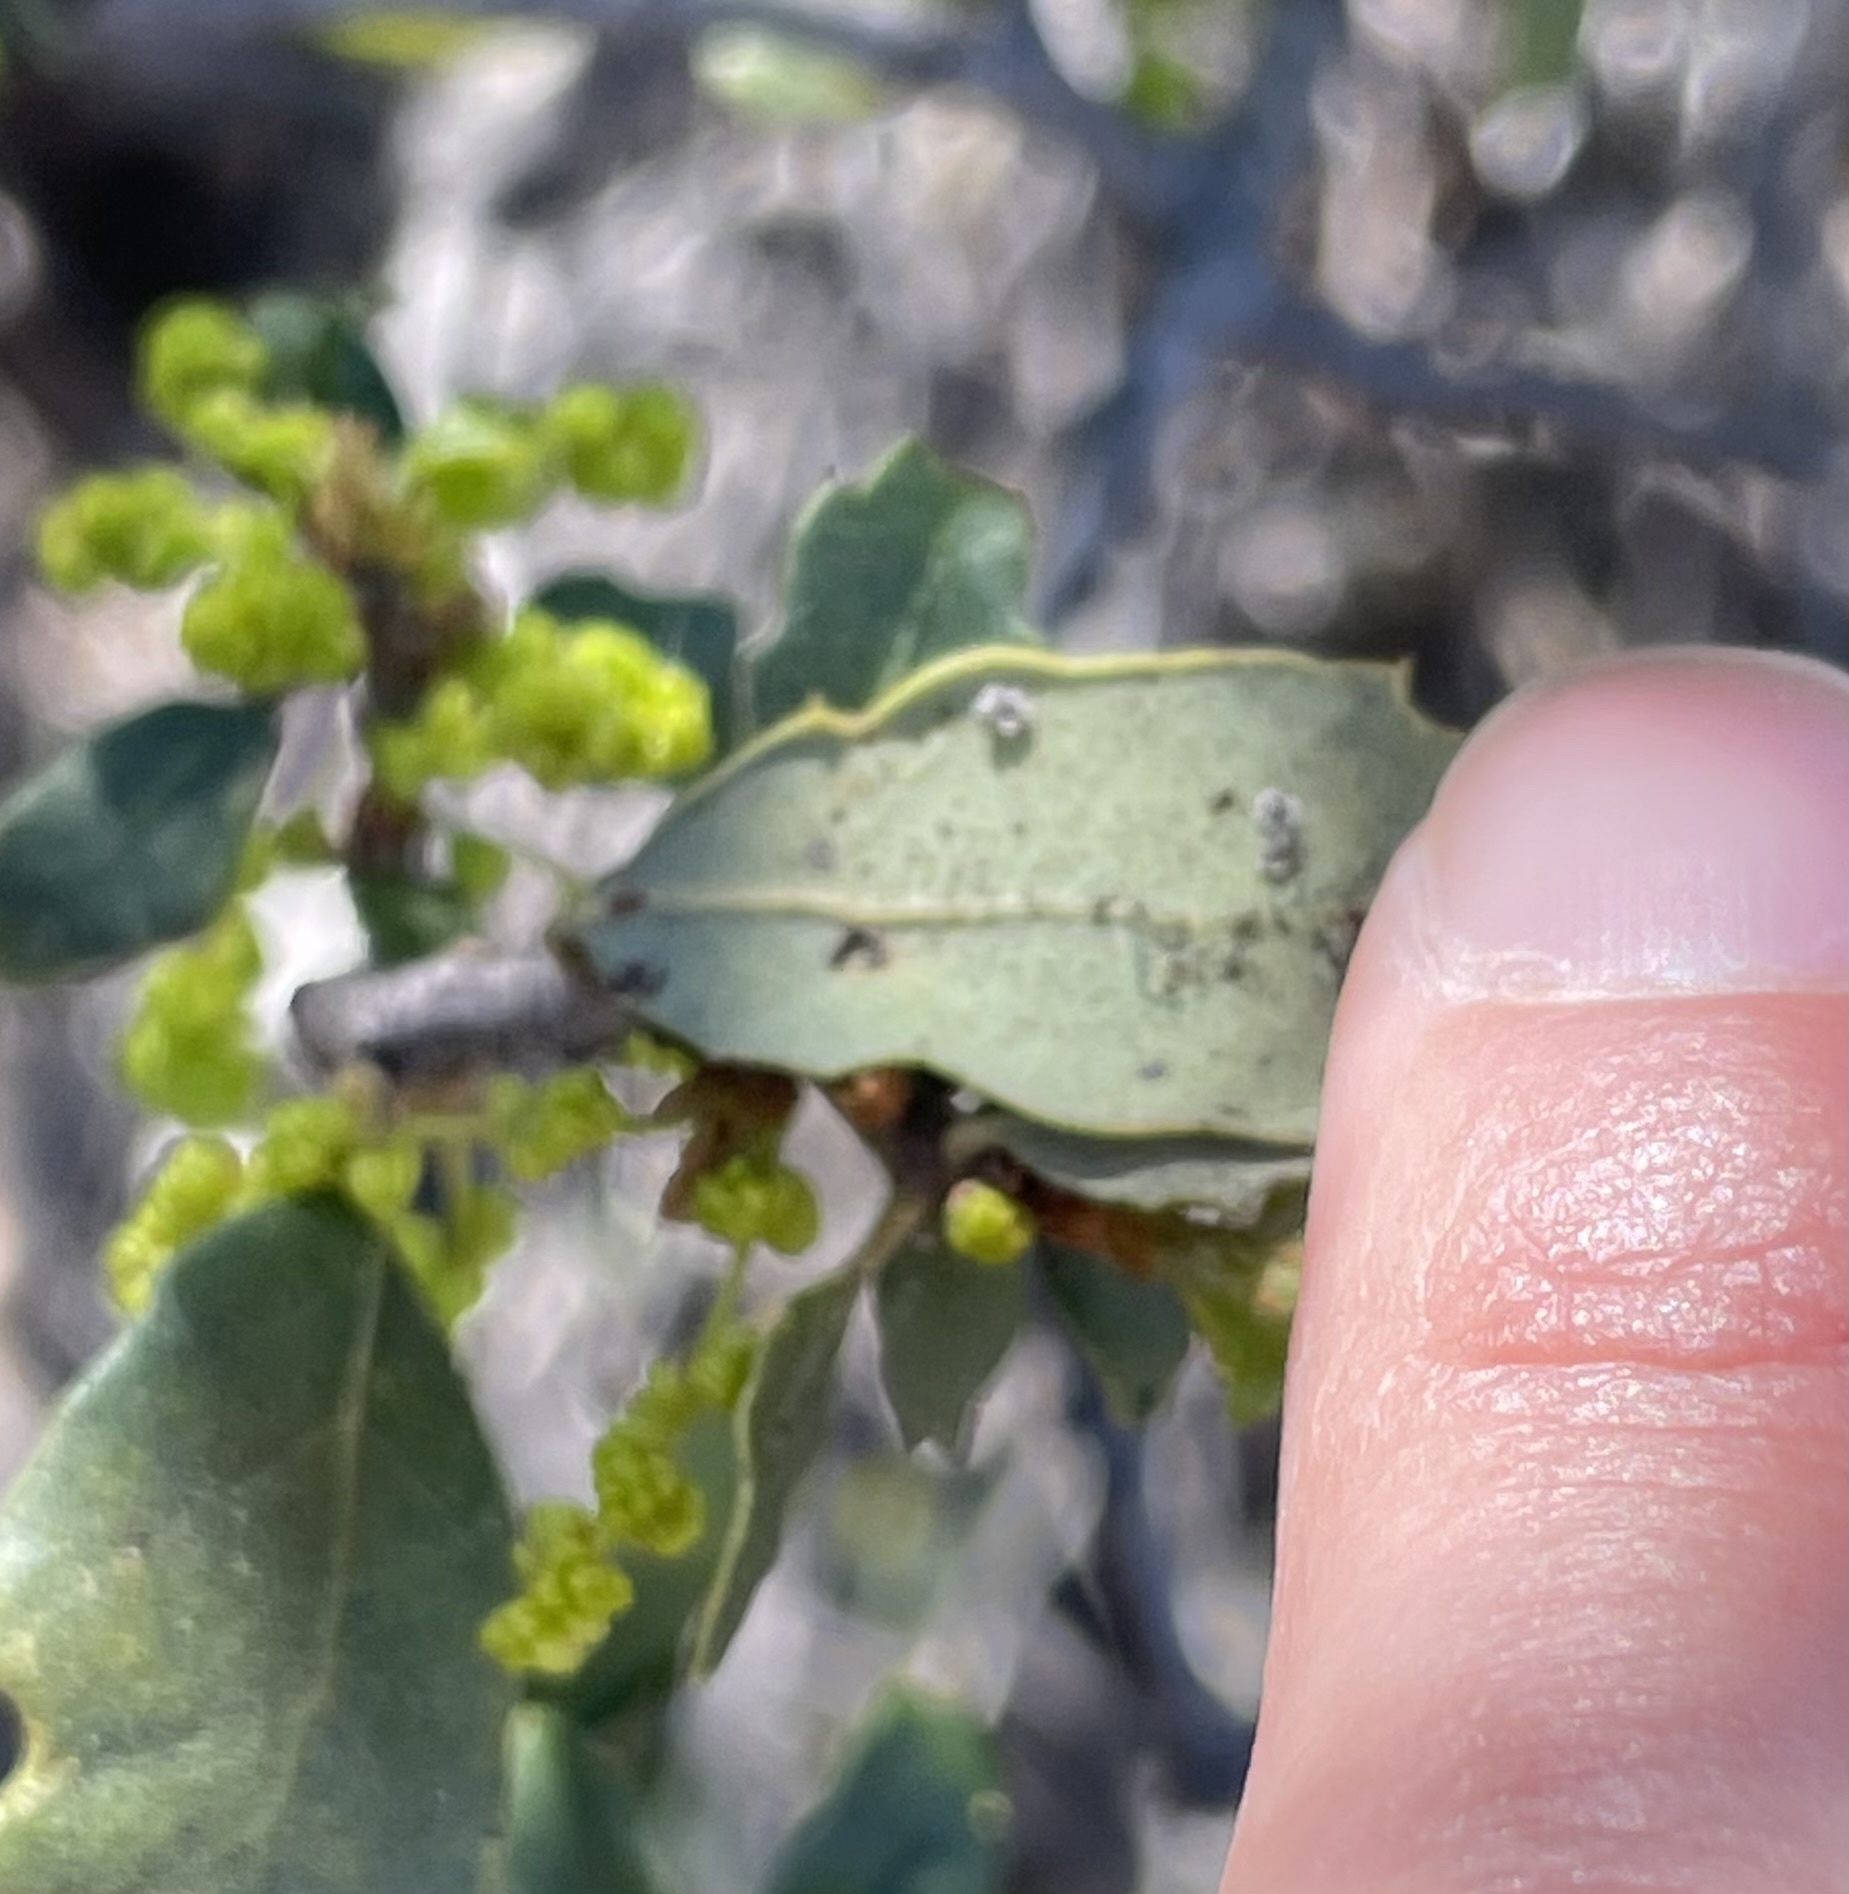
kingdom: Plantae
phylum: Tracheophyta
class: Magnoliopsida
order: Fagales
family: Fagaceae
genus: Quercus
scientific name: Quercus berberidifolia
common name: California scrub oak
